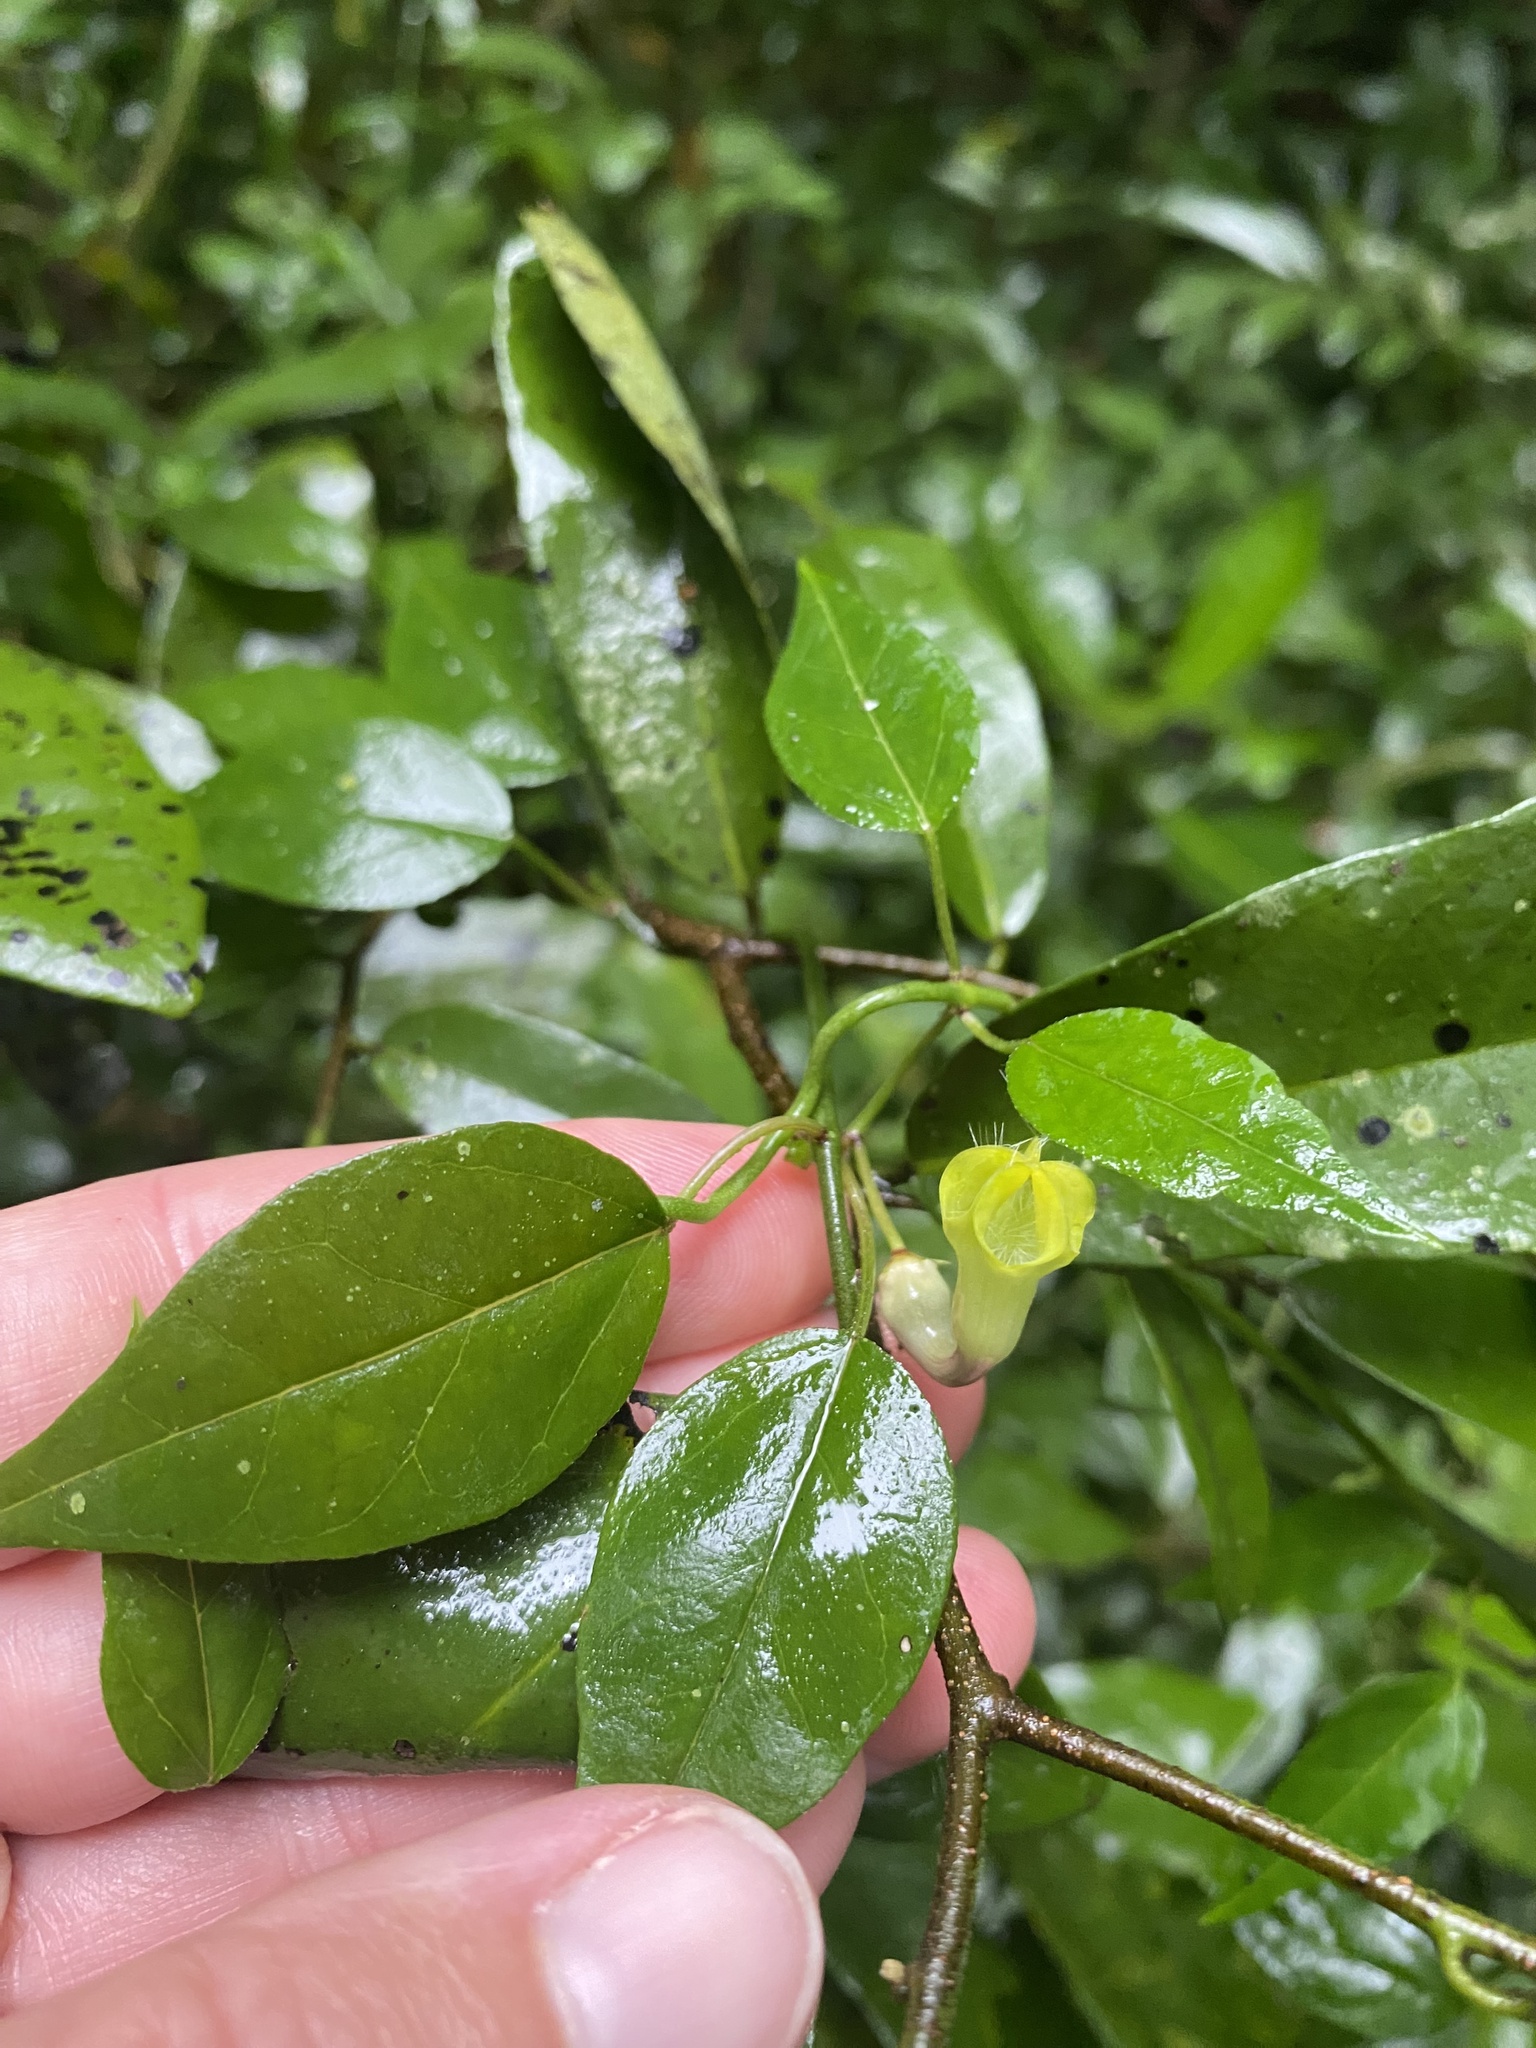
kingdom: Plantae
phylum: Tracheophyta
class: Magnoliopsida
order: Gentianales
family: Apocynaceae
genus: Ceropegia
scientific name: Ceropegia carnosa
